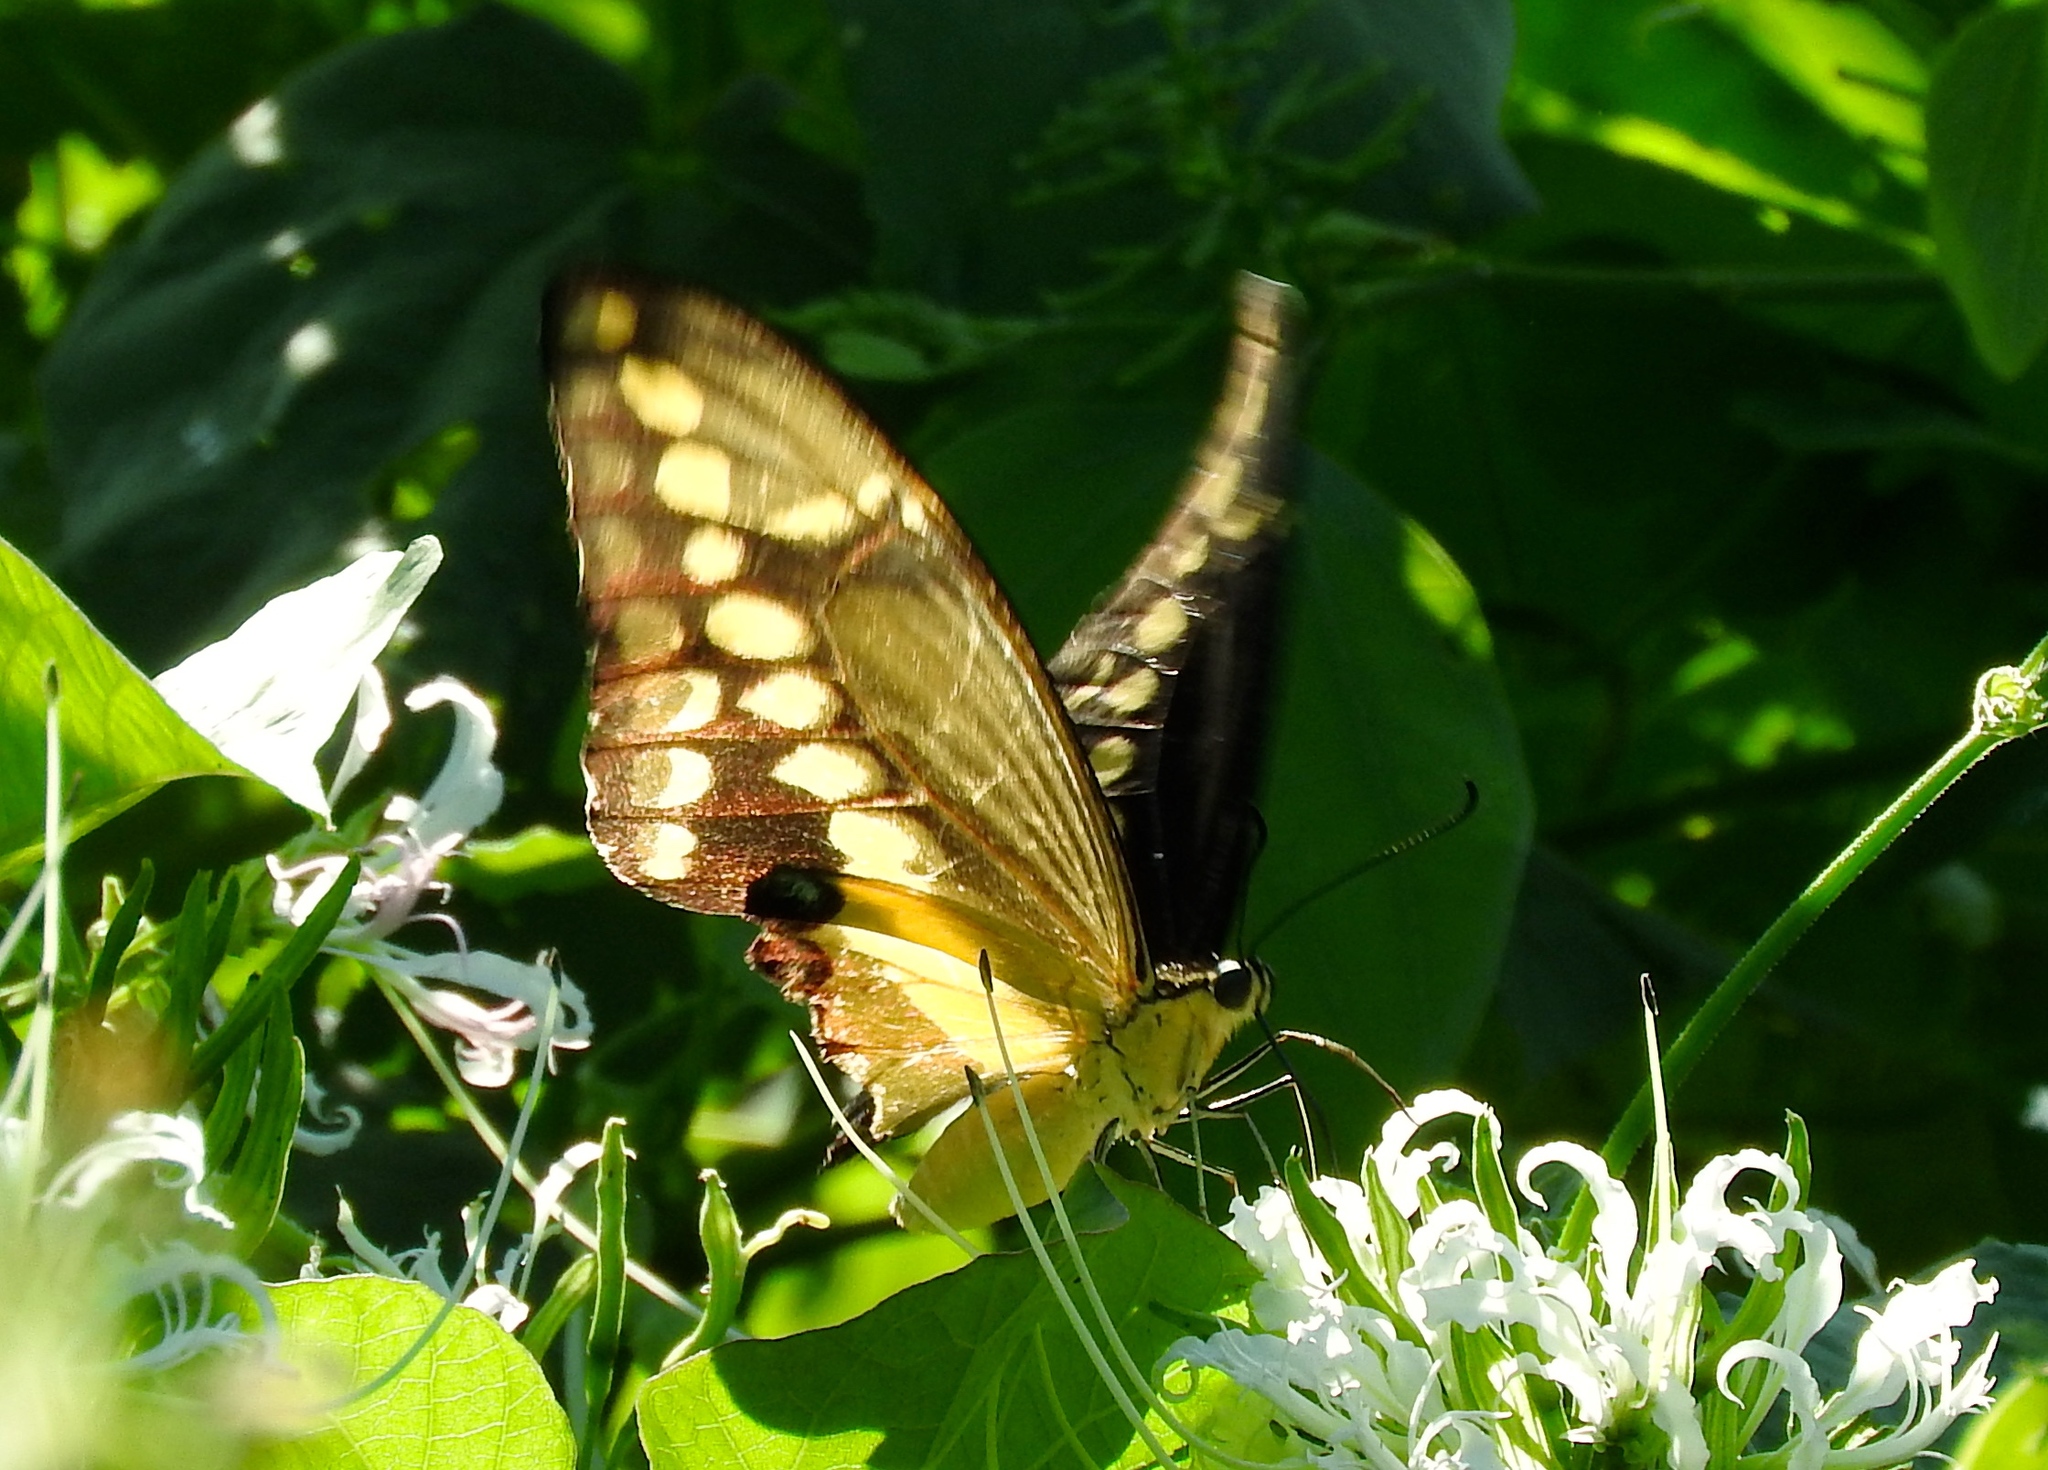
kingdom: Animalia
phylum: Arthropoda
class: Insecta
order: Lepidoptera
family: Papilionidae
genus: Papilio
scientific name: Papilio rumiko
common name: Western giant swallowtail
